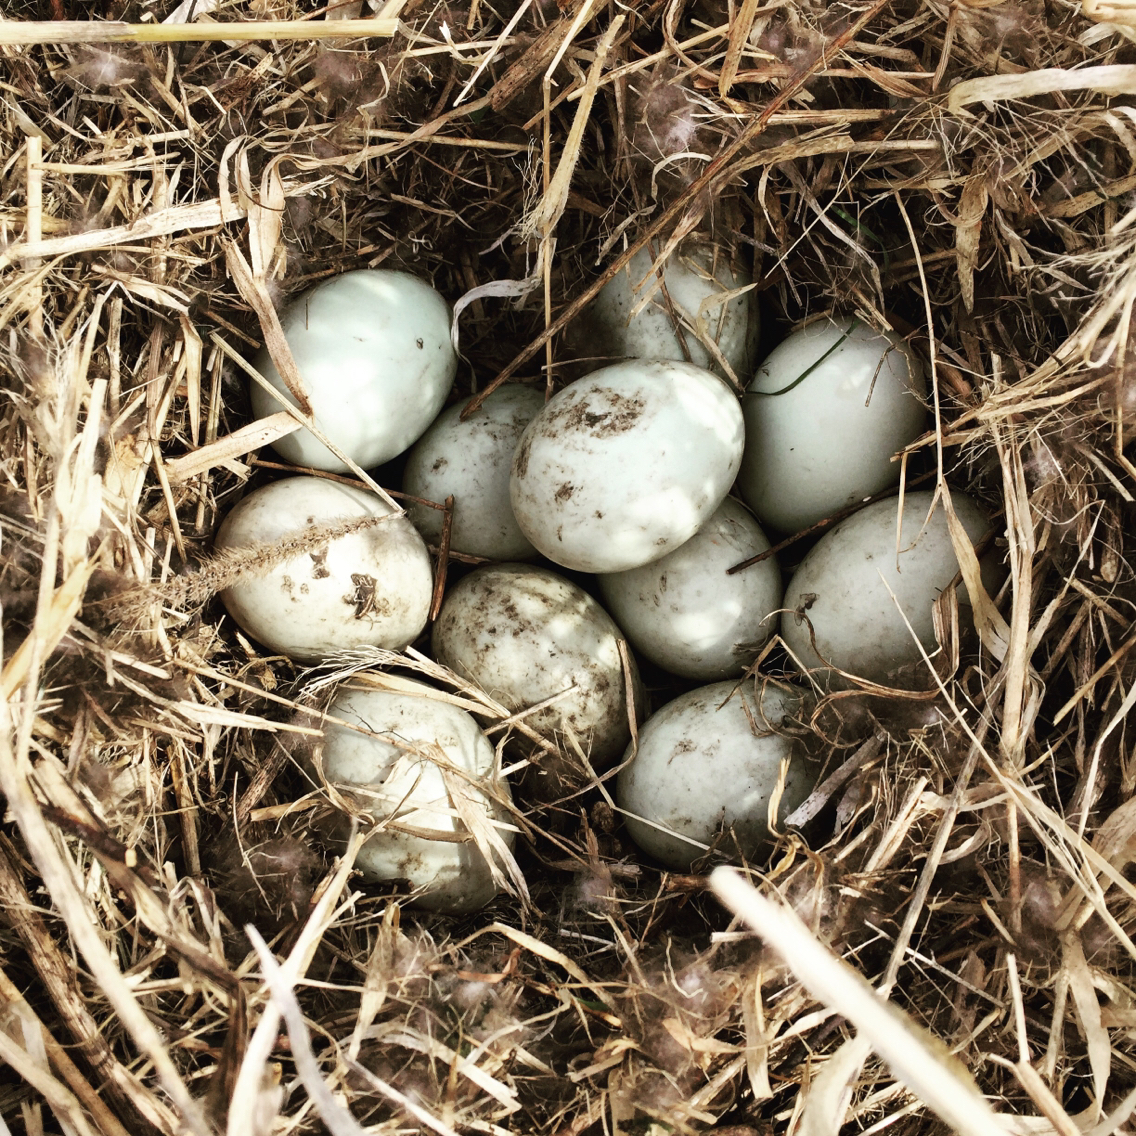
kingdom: Animalia
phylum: Chordata
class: Aves
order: Anseriformes
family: Anatidae
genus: Anas
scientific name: Anas platyrhynchos
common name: Mallard
